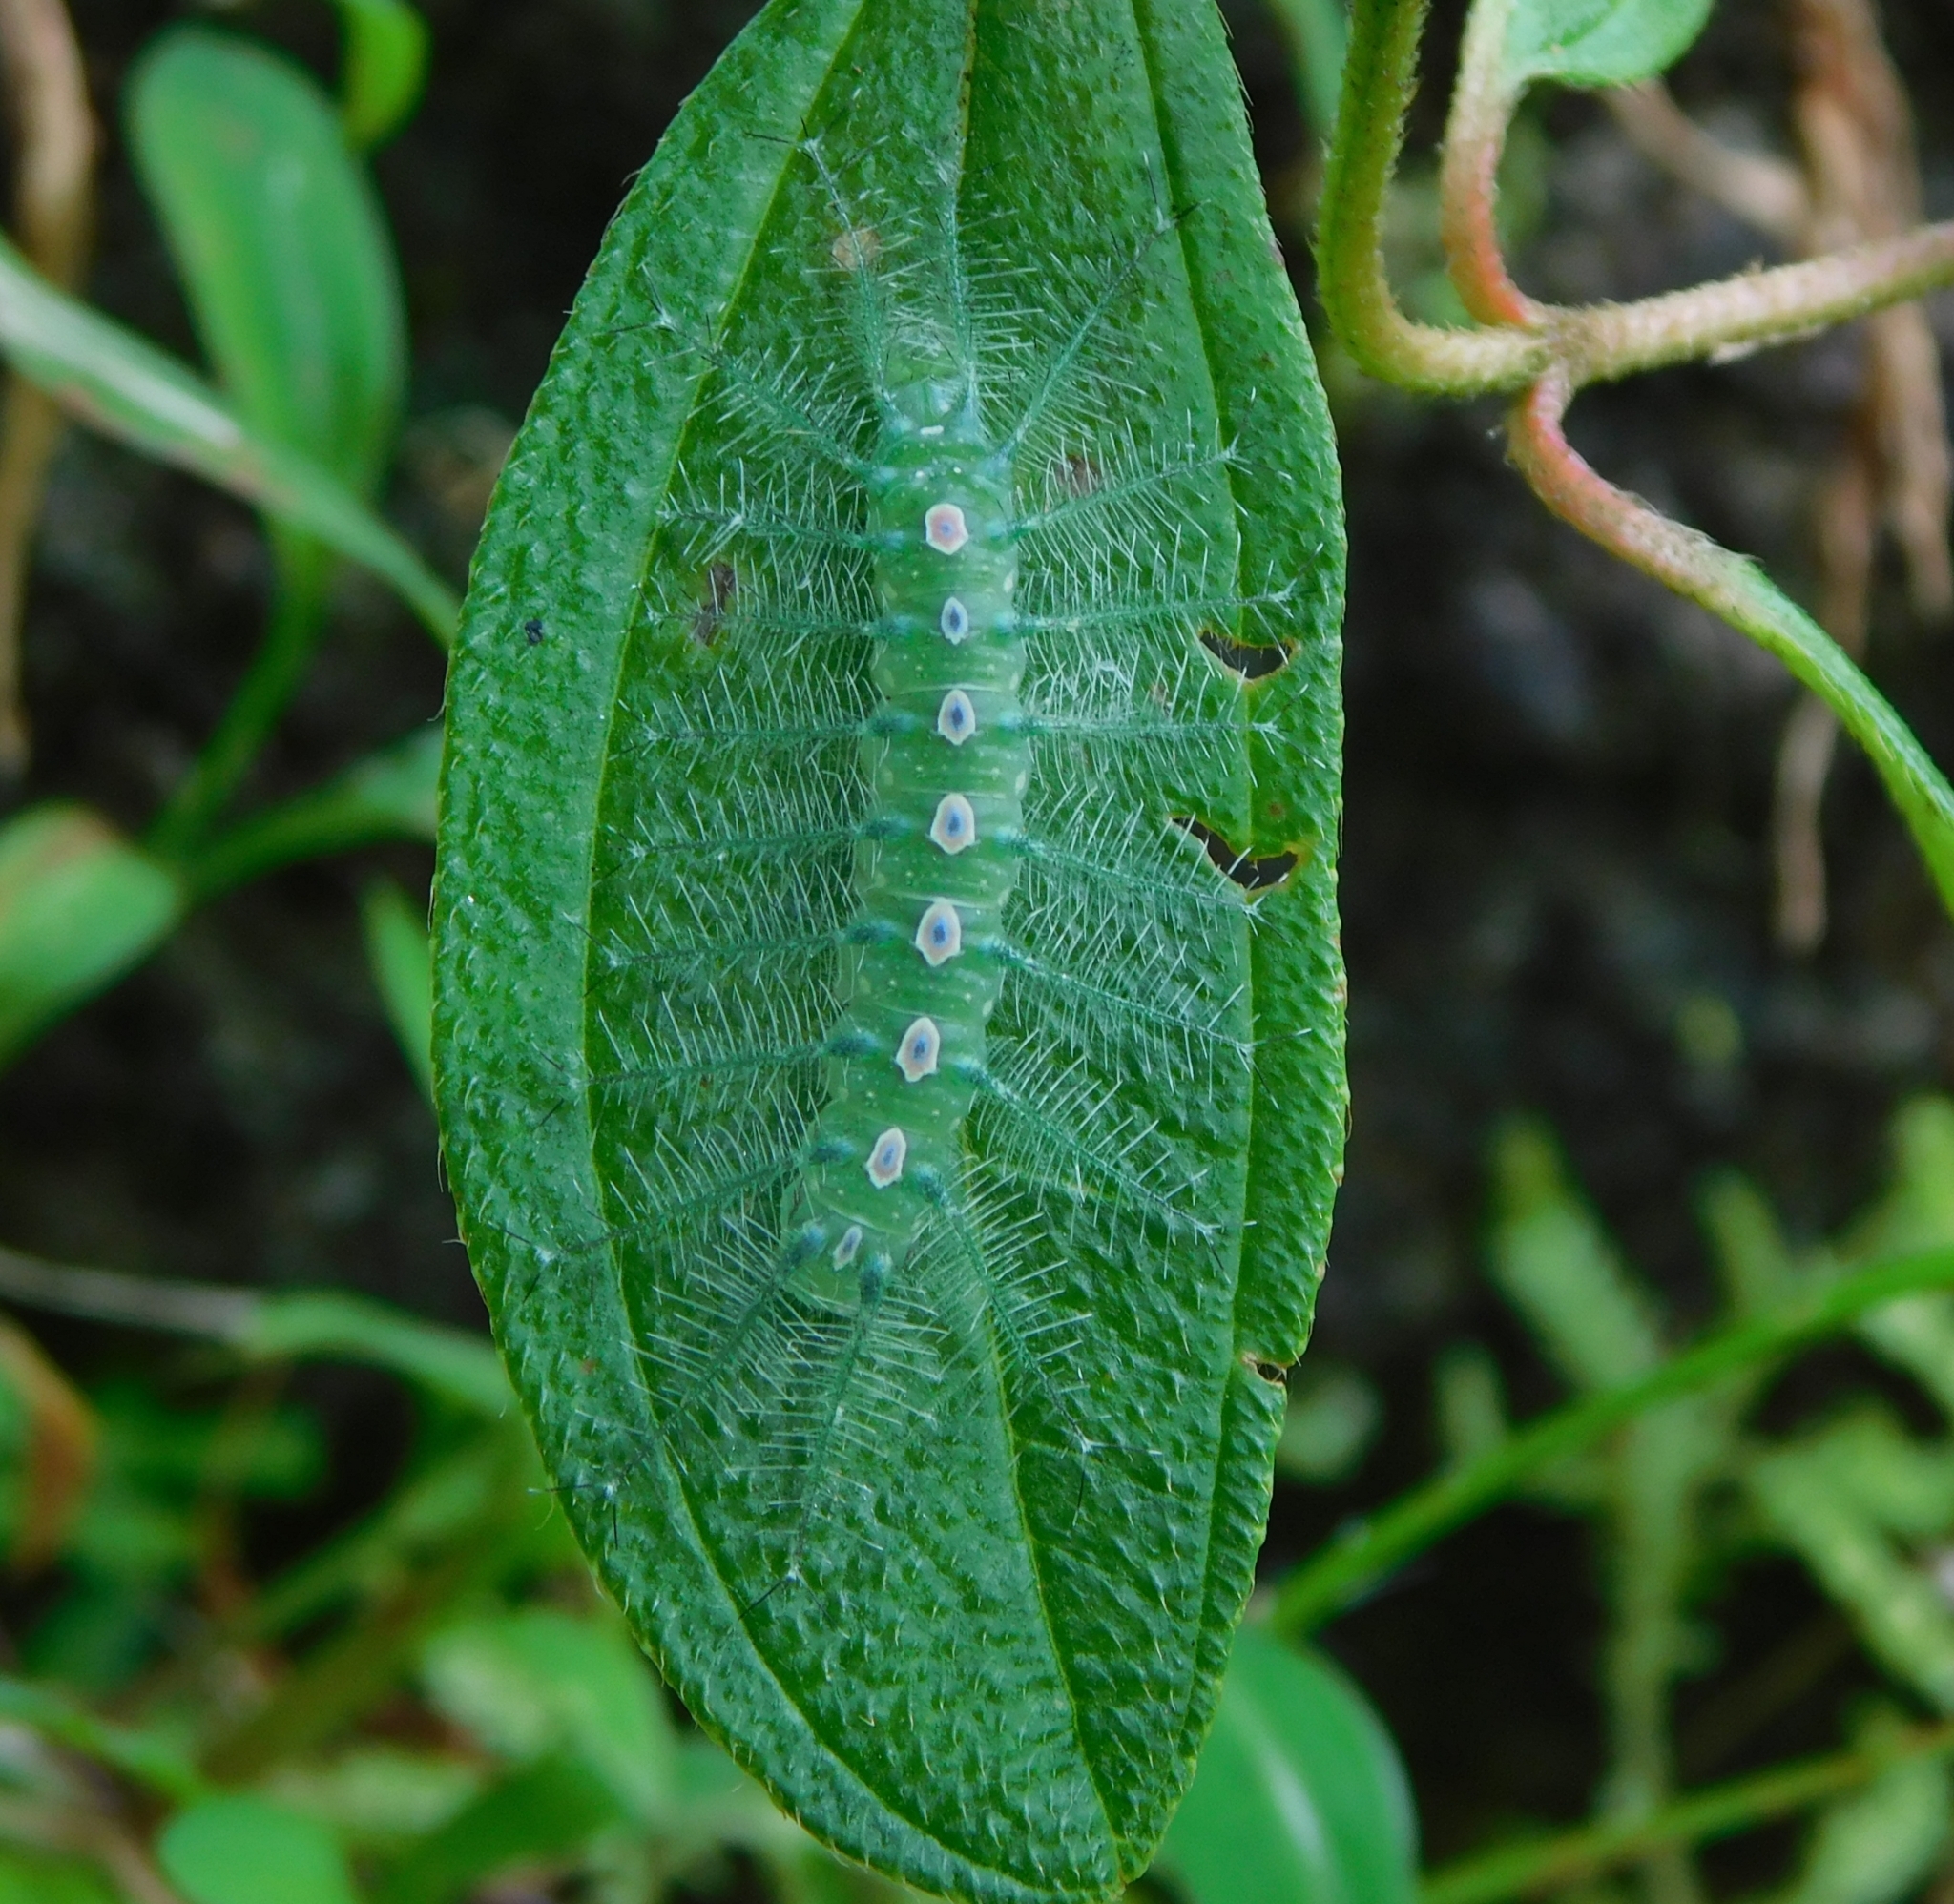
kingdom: Animalia
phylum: Arthropoda
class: Insecta
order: Lepidoptera
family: Nymphalidae
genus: Tanaecia
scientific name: Tanaecia lepidea
